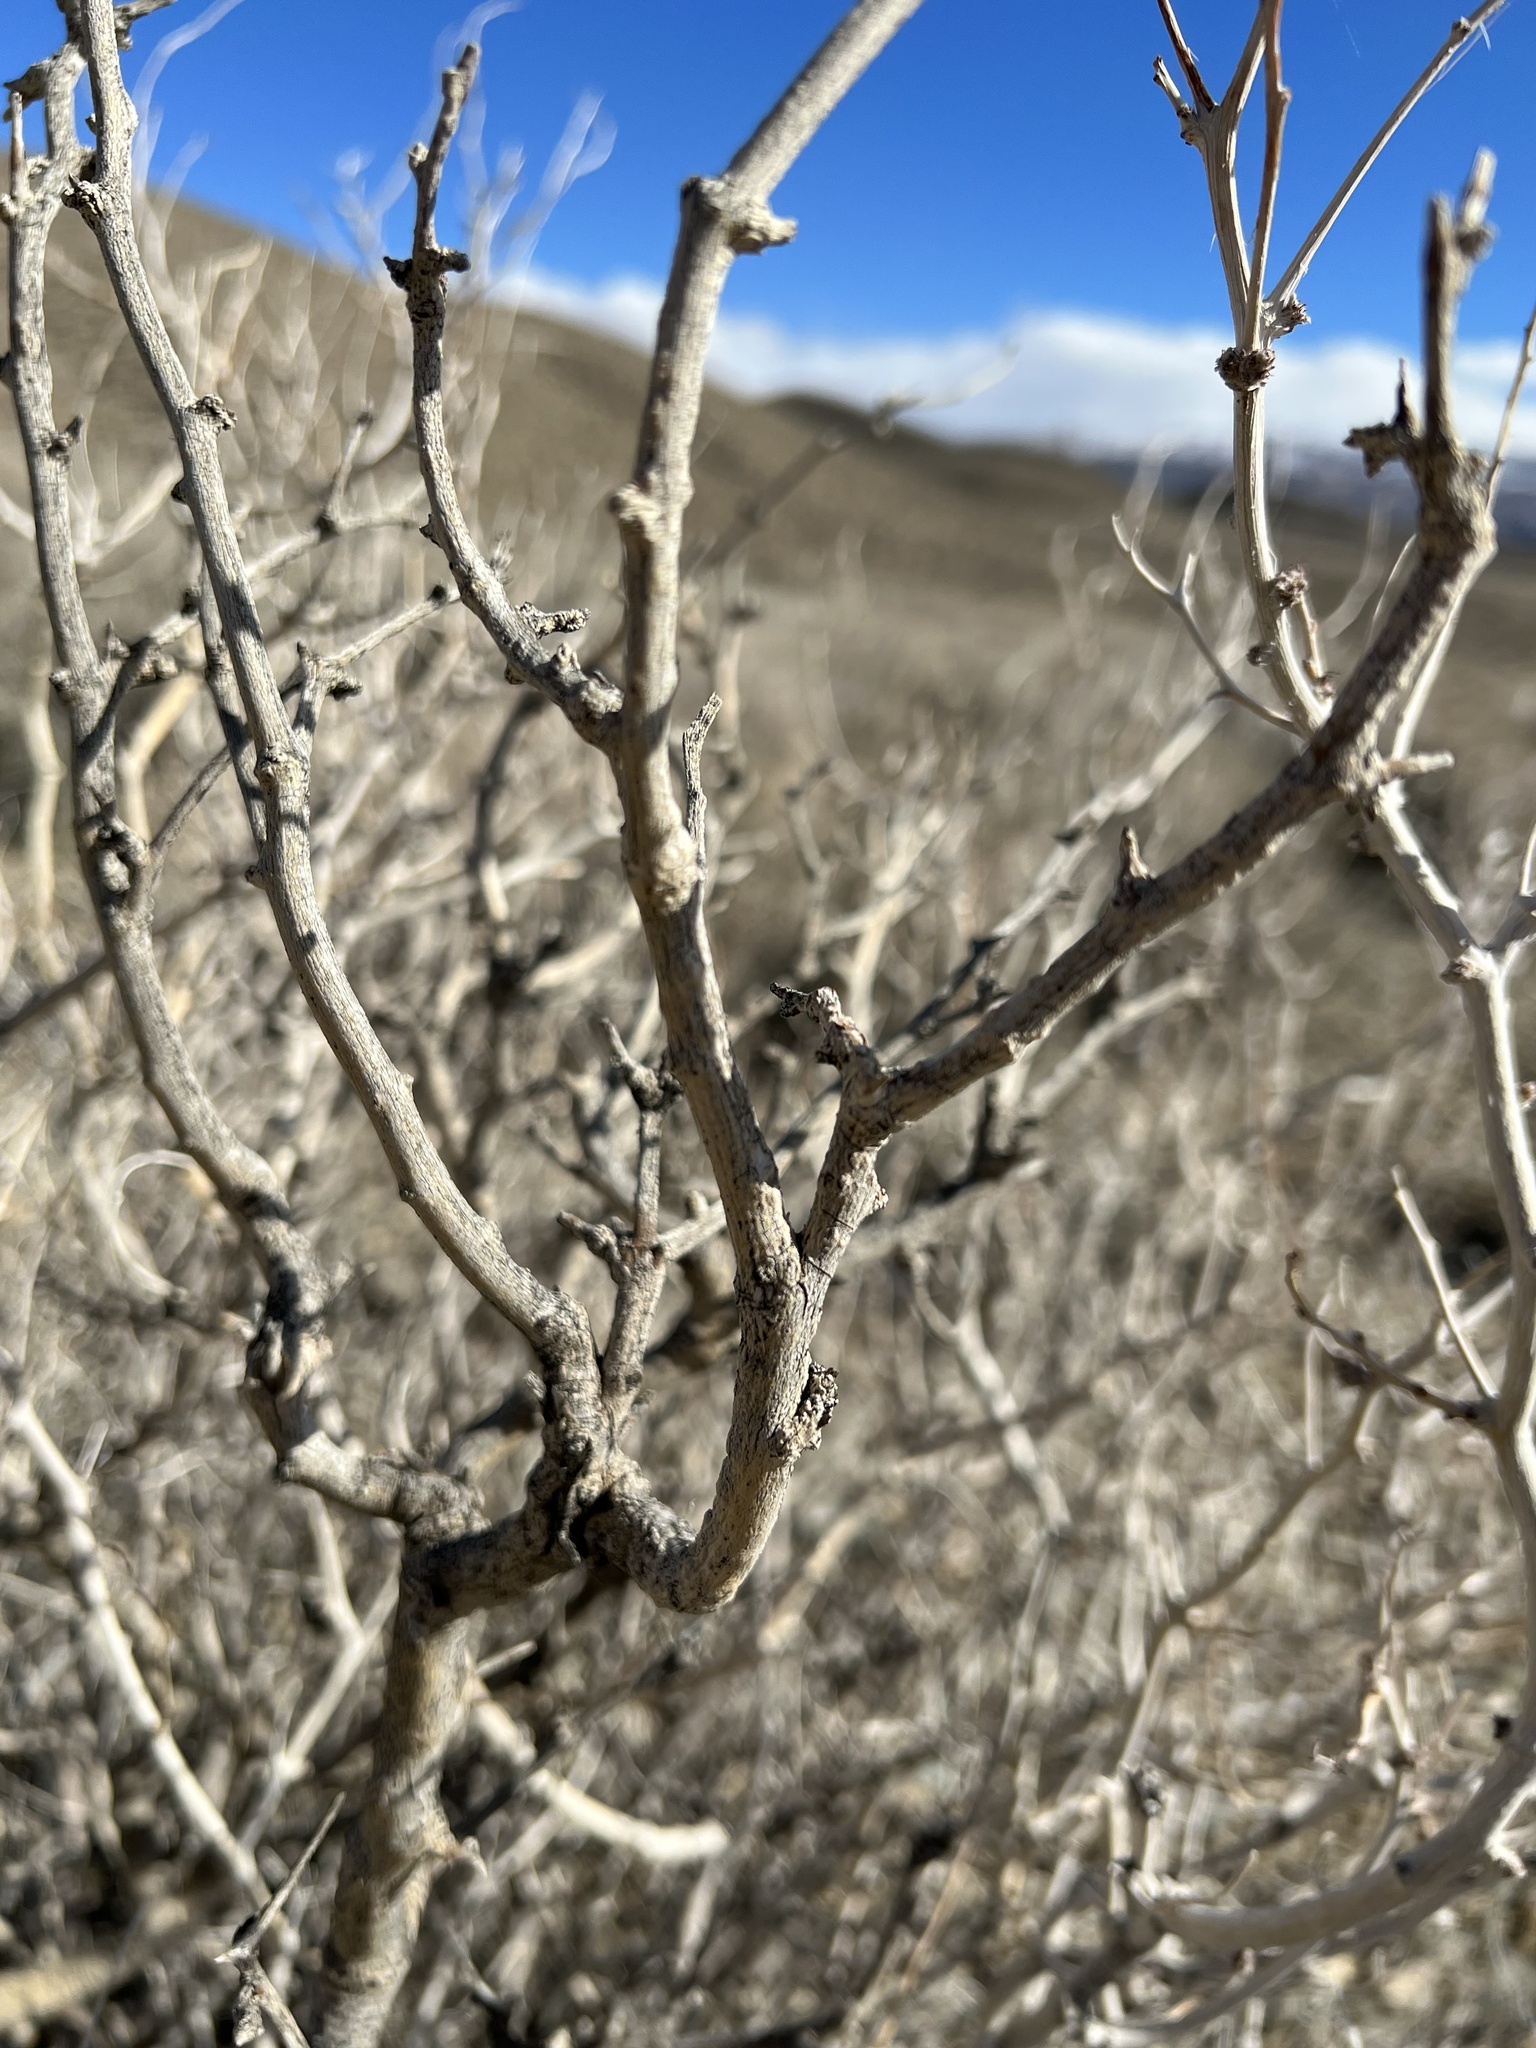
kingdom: Plantae
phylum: Tracheophyta
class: Magnoliopsida
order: Fabales
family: Fabaceae
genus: Psorothamnus
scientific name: Psorothamnus arborescens
